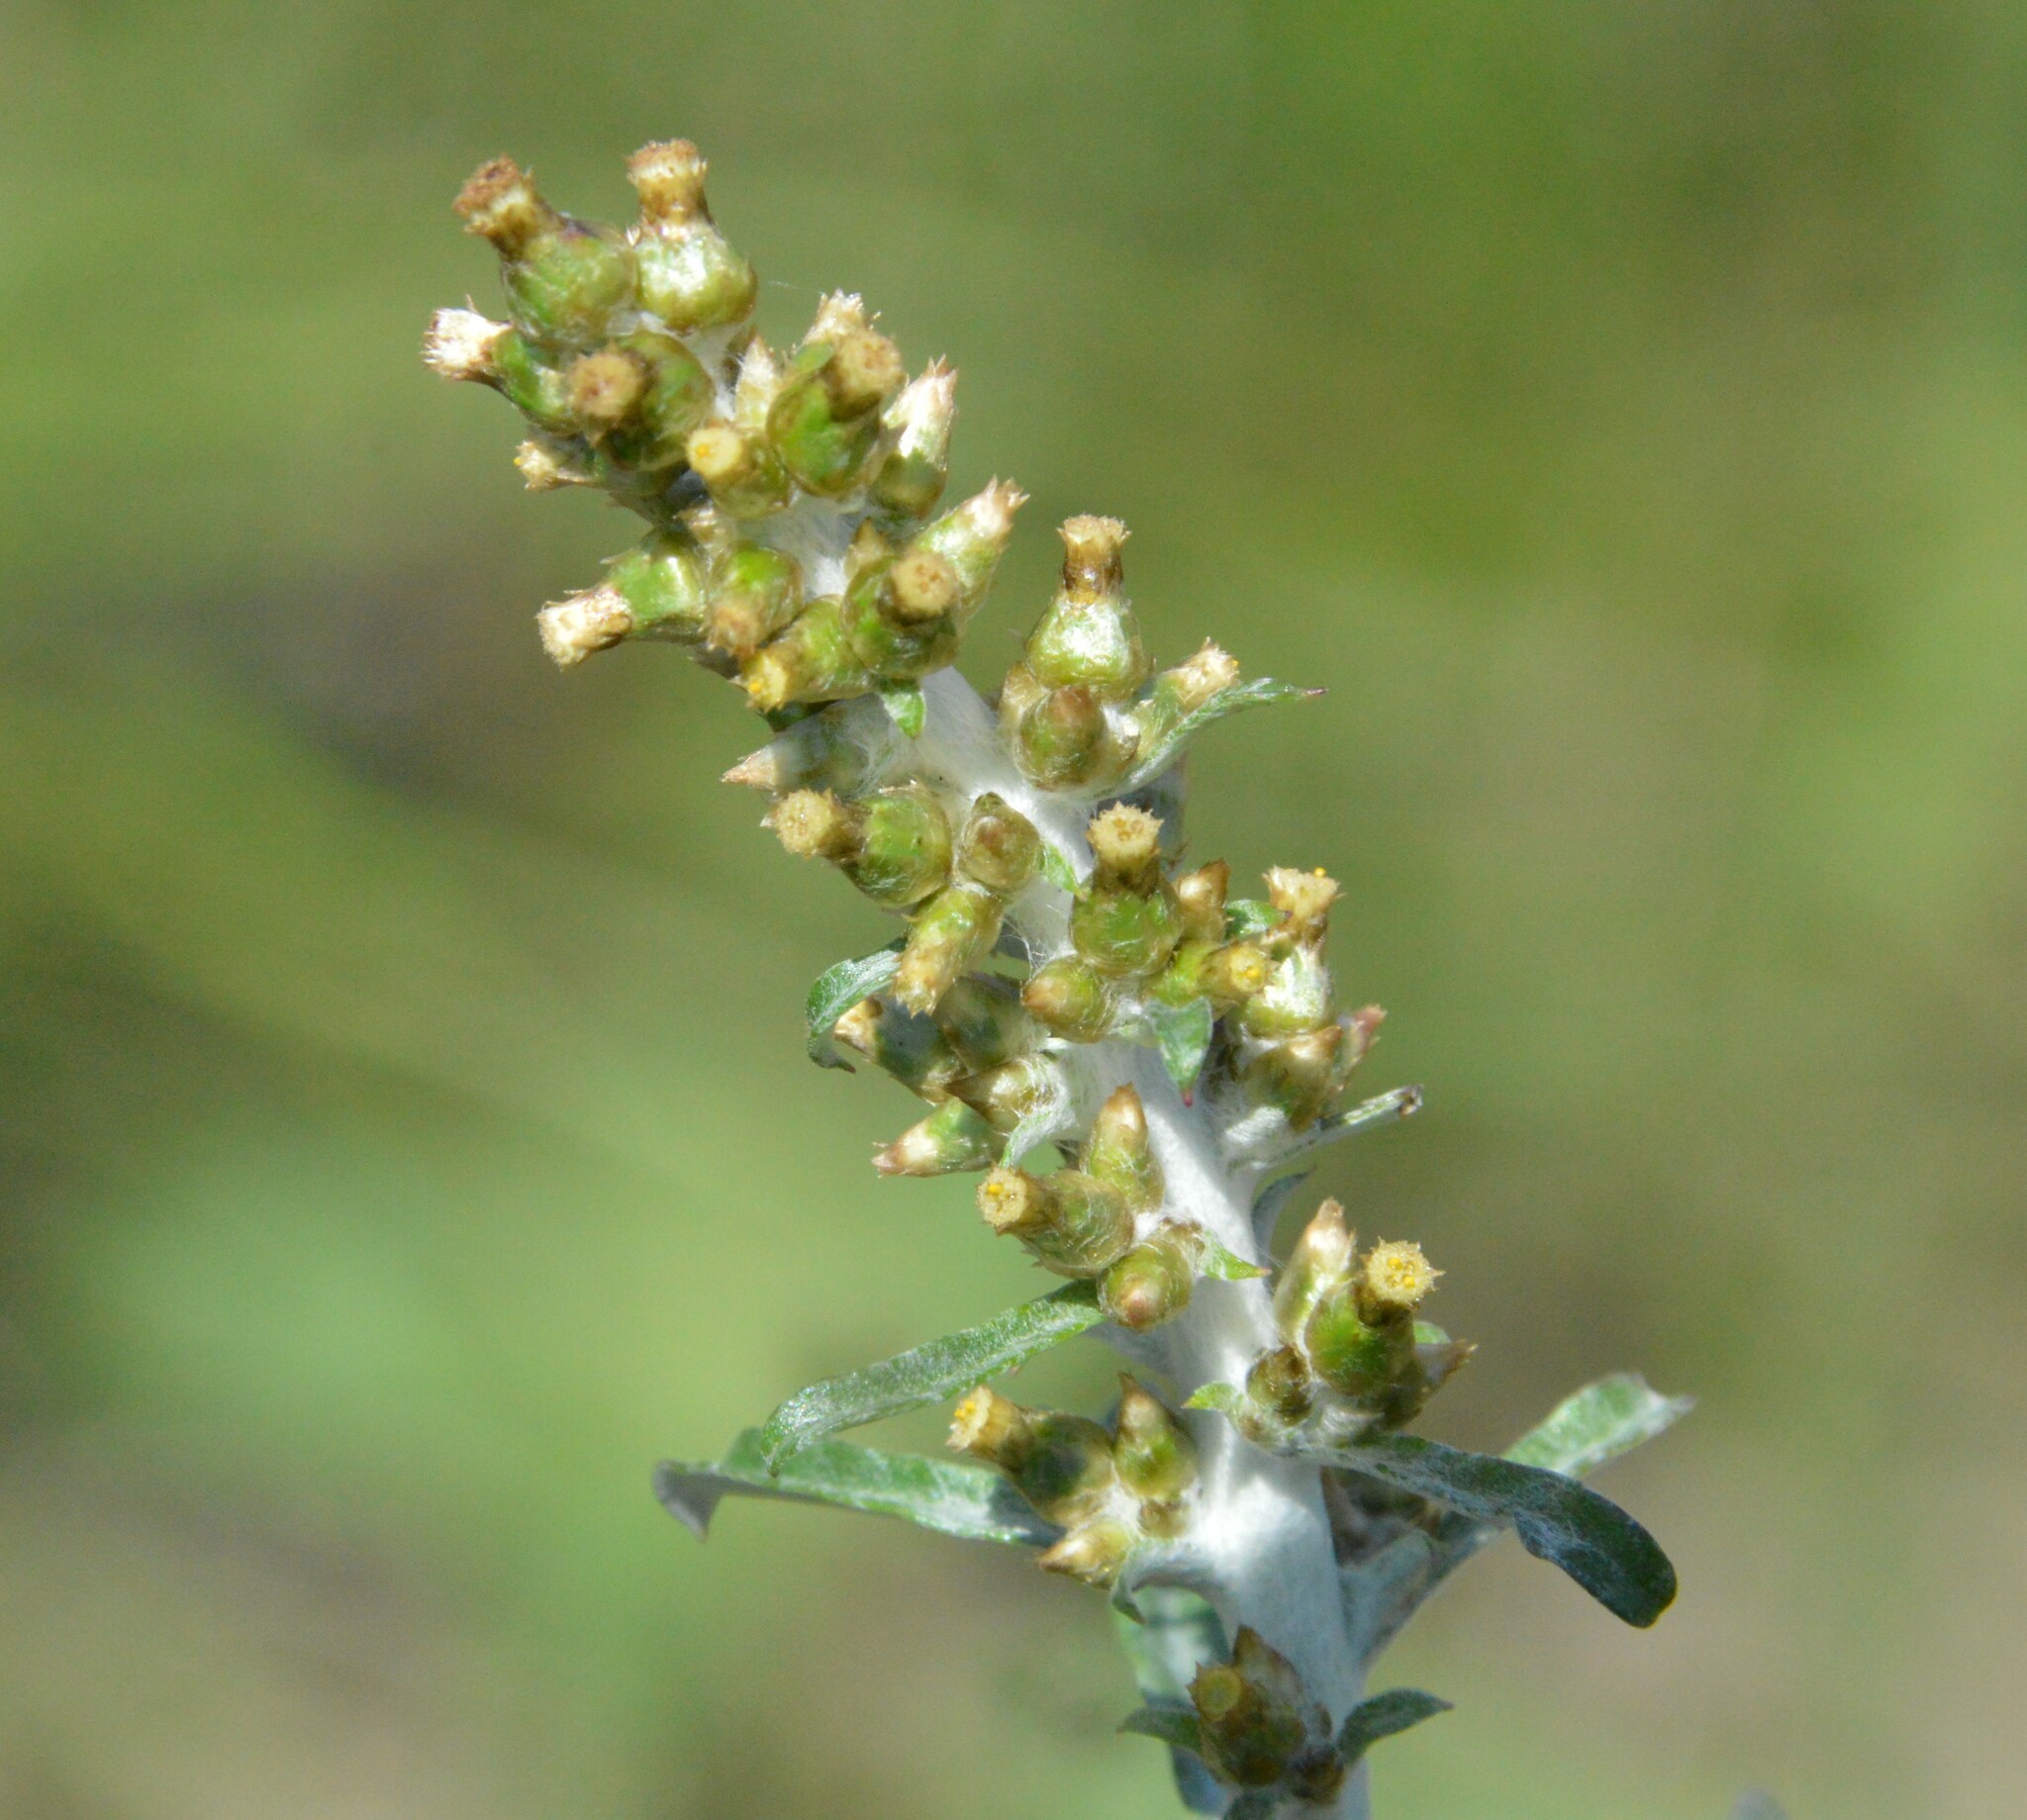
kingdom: Plantae
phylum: Tracheophyta
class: Magnoliopsida
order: Asterales
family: Asteraceae
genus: Gamochaeta
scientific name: Gamochaeta purpurea
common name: Purple cudweed
